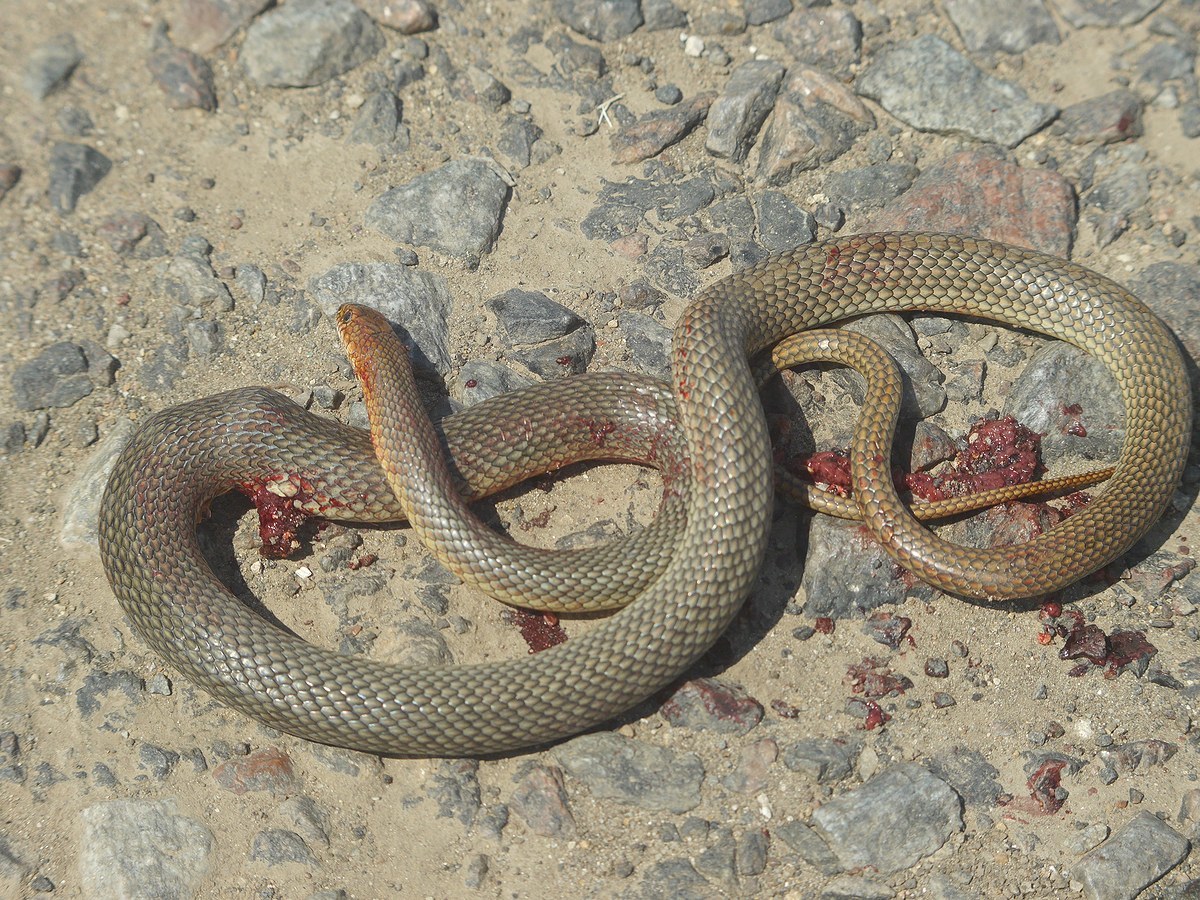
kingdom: Animalia
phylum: Chordata
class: Squamata
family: Colubridae
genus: Dolichophis
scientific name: Dolichophis caspius
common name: Large whip snake
